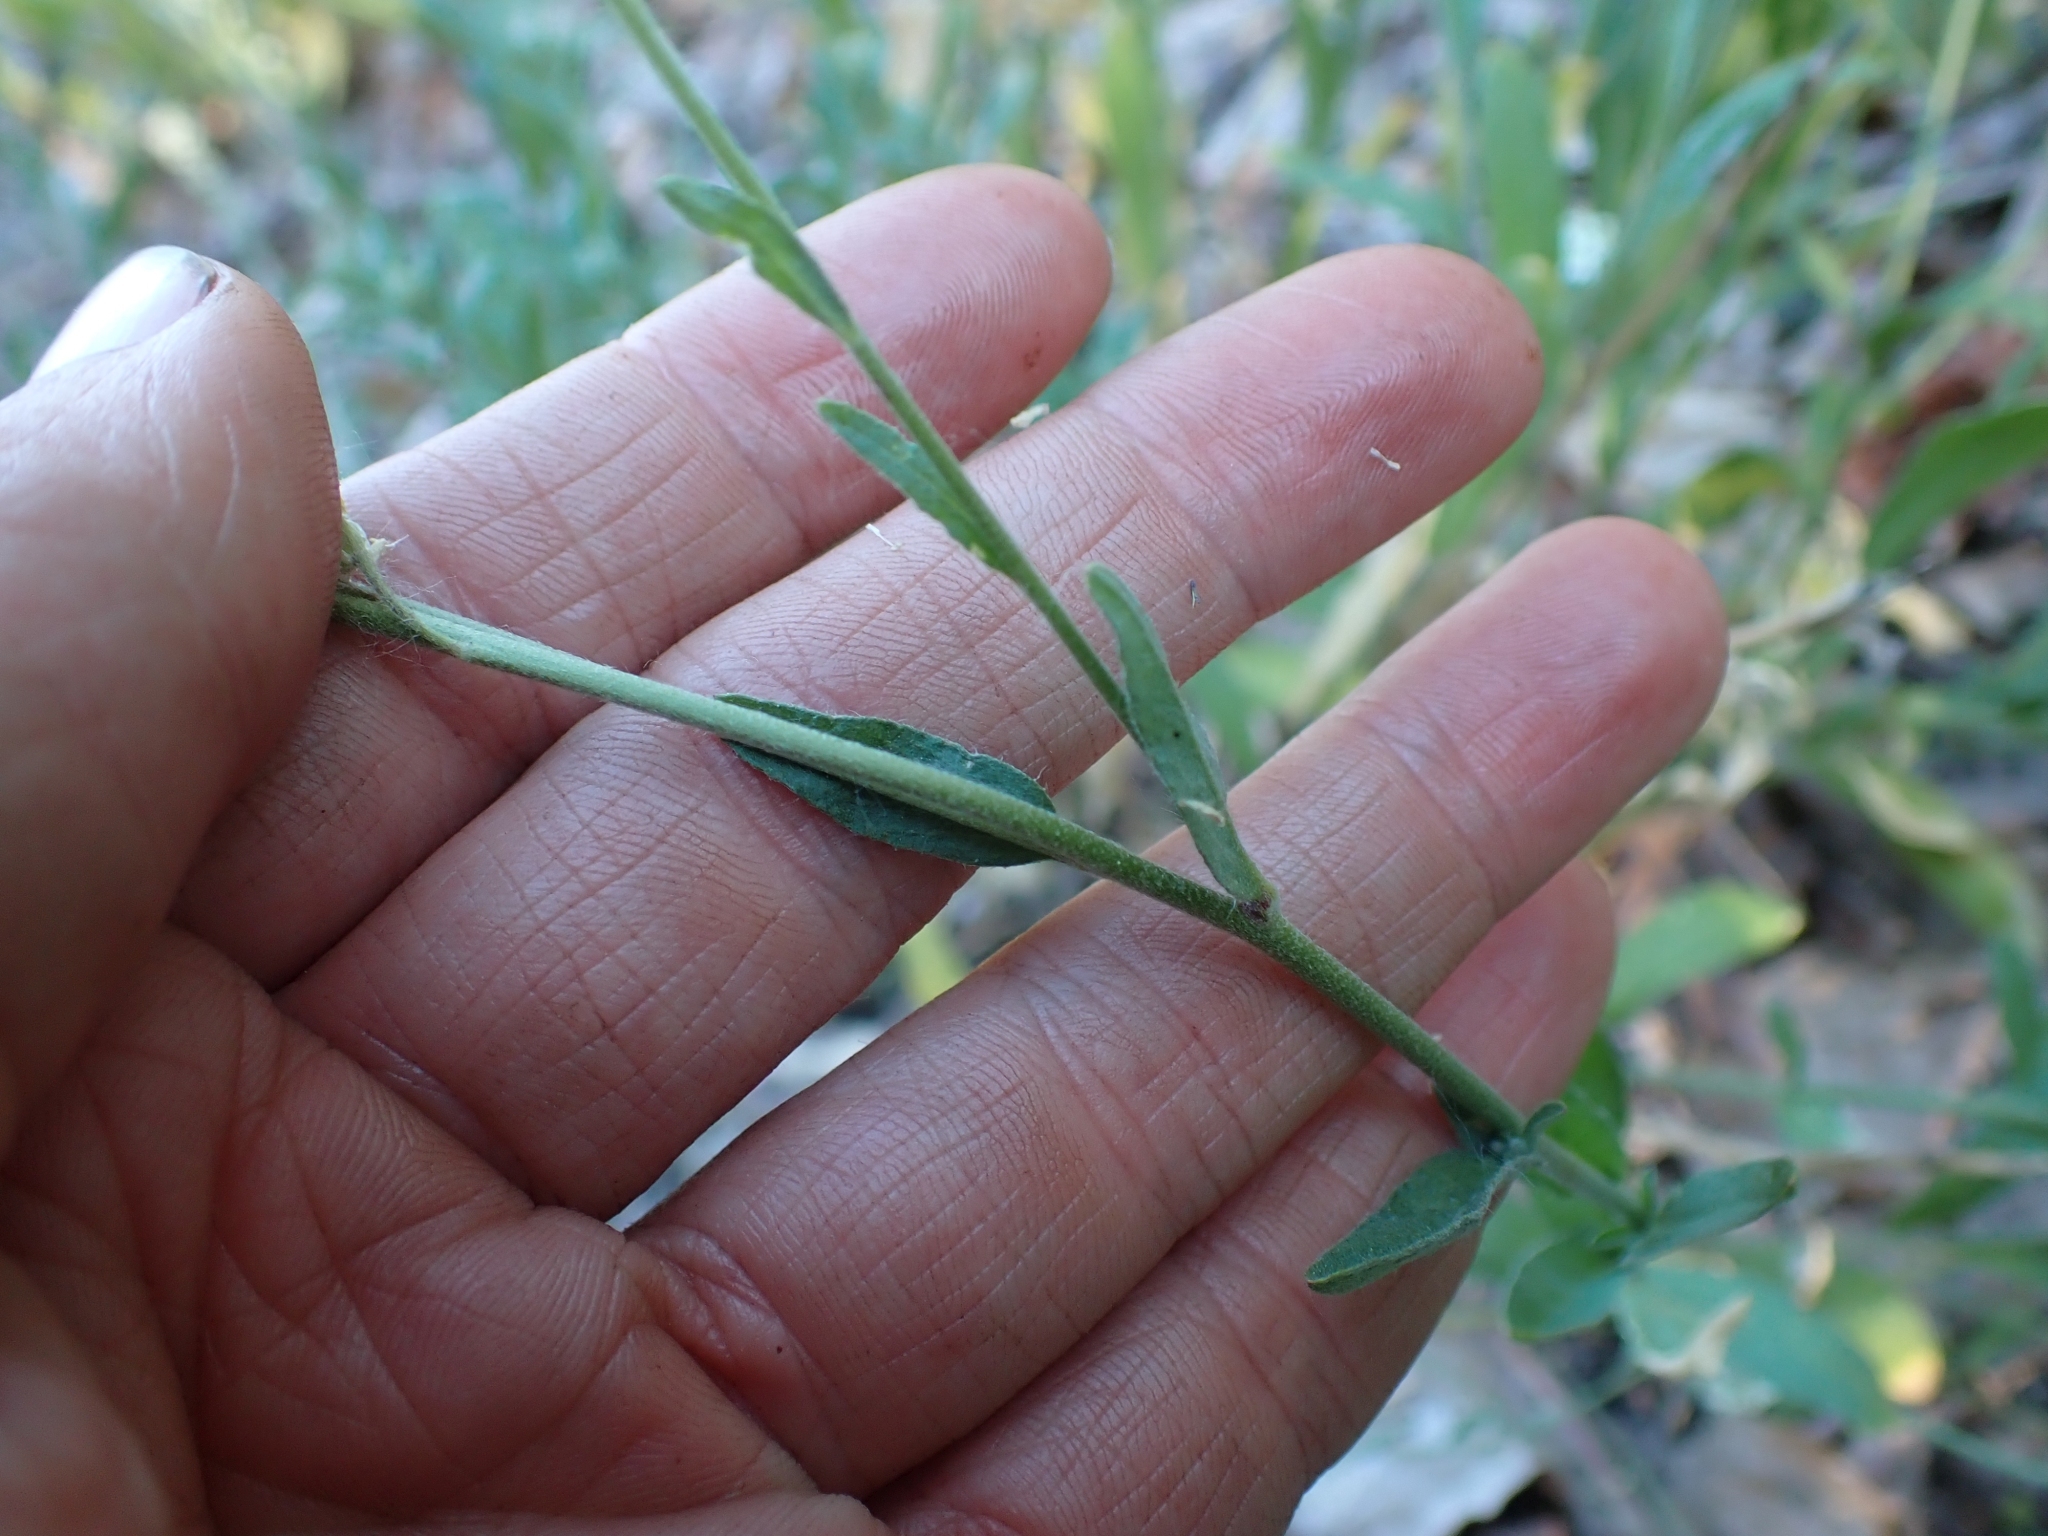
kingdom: Plantae
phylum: Tracheophyta
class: Magnoliopsida
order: Brassicales
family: Brassicaceae
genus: Berteroa
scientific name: Berteroa incana
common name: Hoary alison
